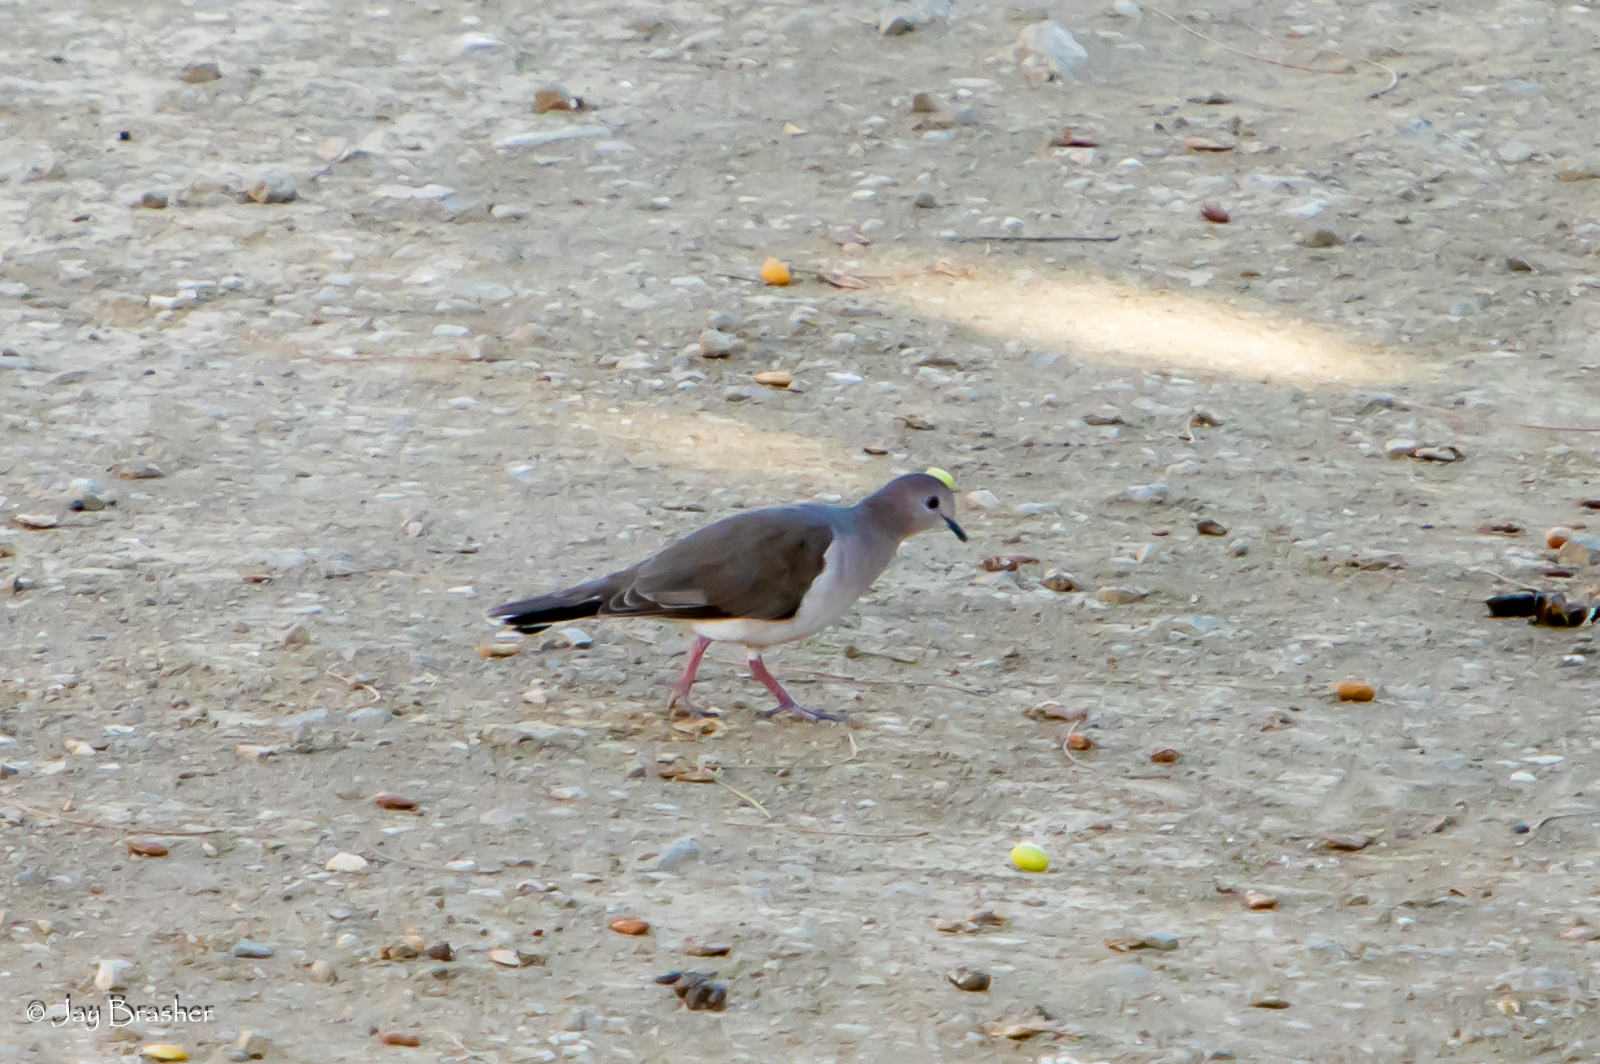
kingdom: Animalia
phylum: Chordata
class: Aves
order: Columbiformes
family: Columbidae
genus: Leptotila
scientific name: Leptotila verreauxi
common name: White-tipped dove
